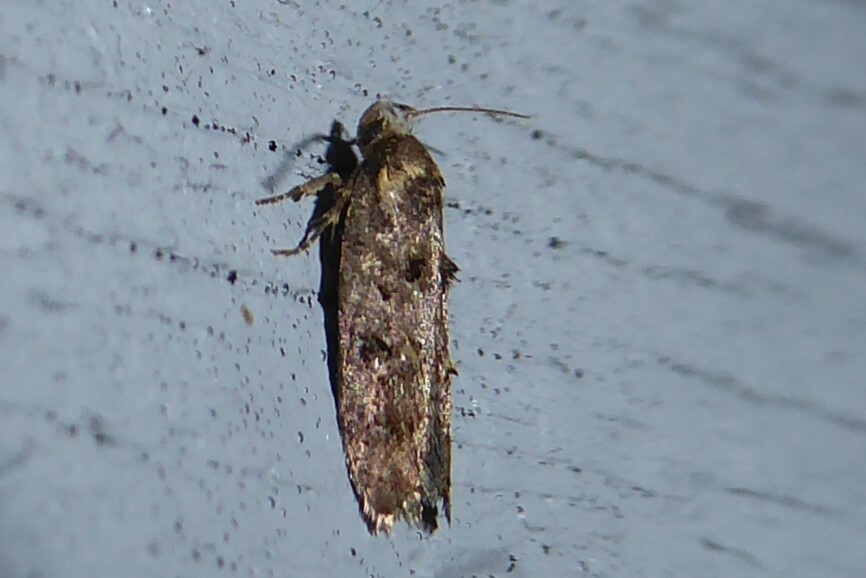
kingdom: Animalia
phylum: Arthropoda
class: Insecta
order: Lepidoptera
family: Oecophoridae
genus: Trachypepla
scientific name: Trachypepla anastrella
